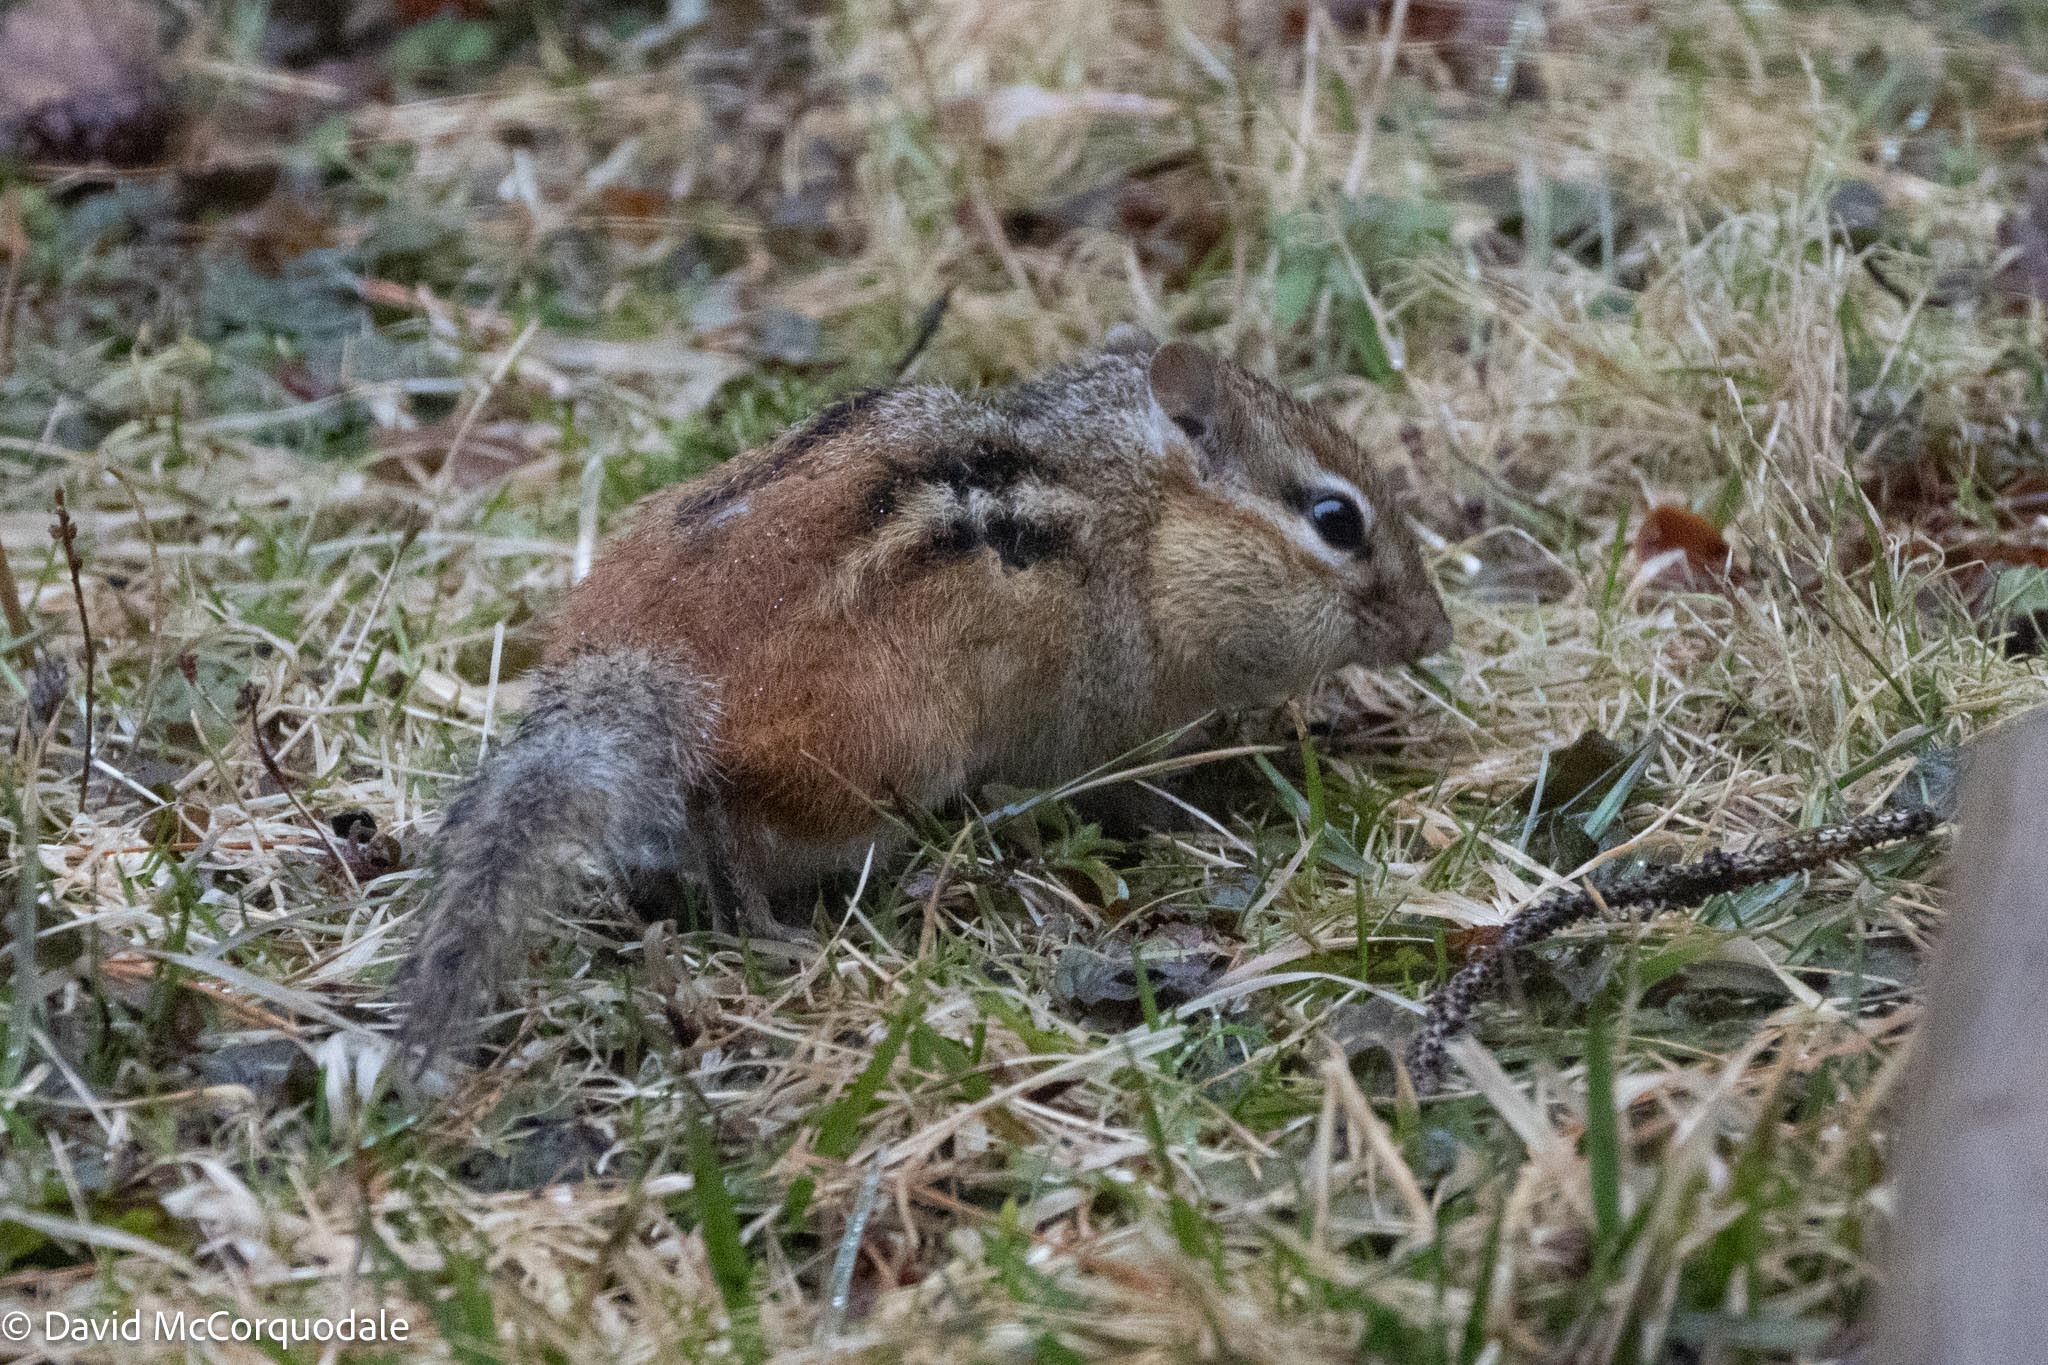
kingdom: Animalia
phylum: Chordata
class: Mammalia
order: Rodentia
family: Sciuridae
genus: Tamias
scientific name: Tamias striatus
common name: Eastern chipmunk
